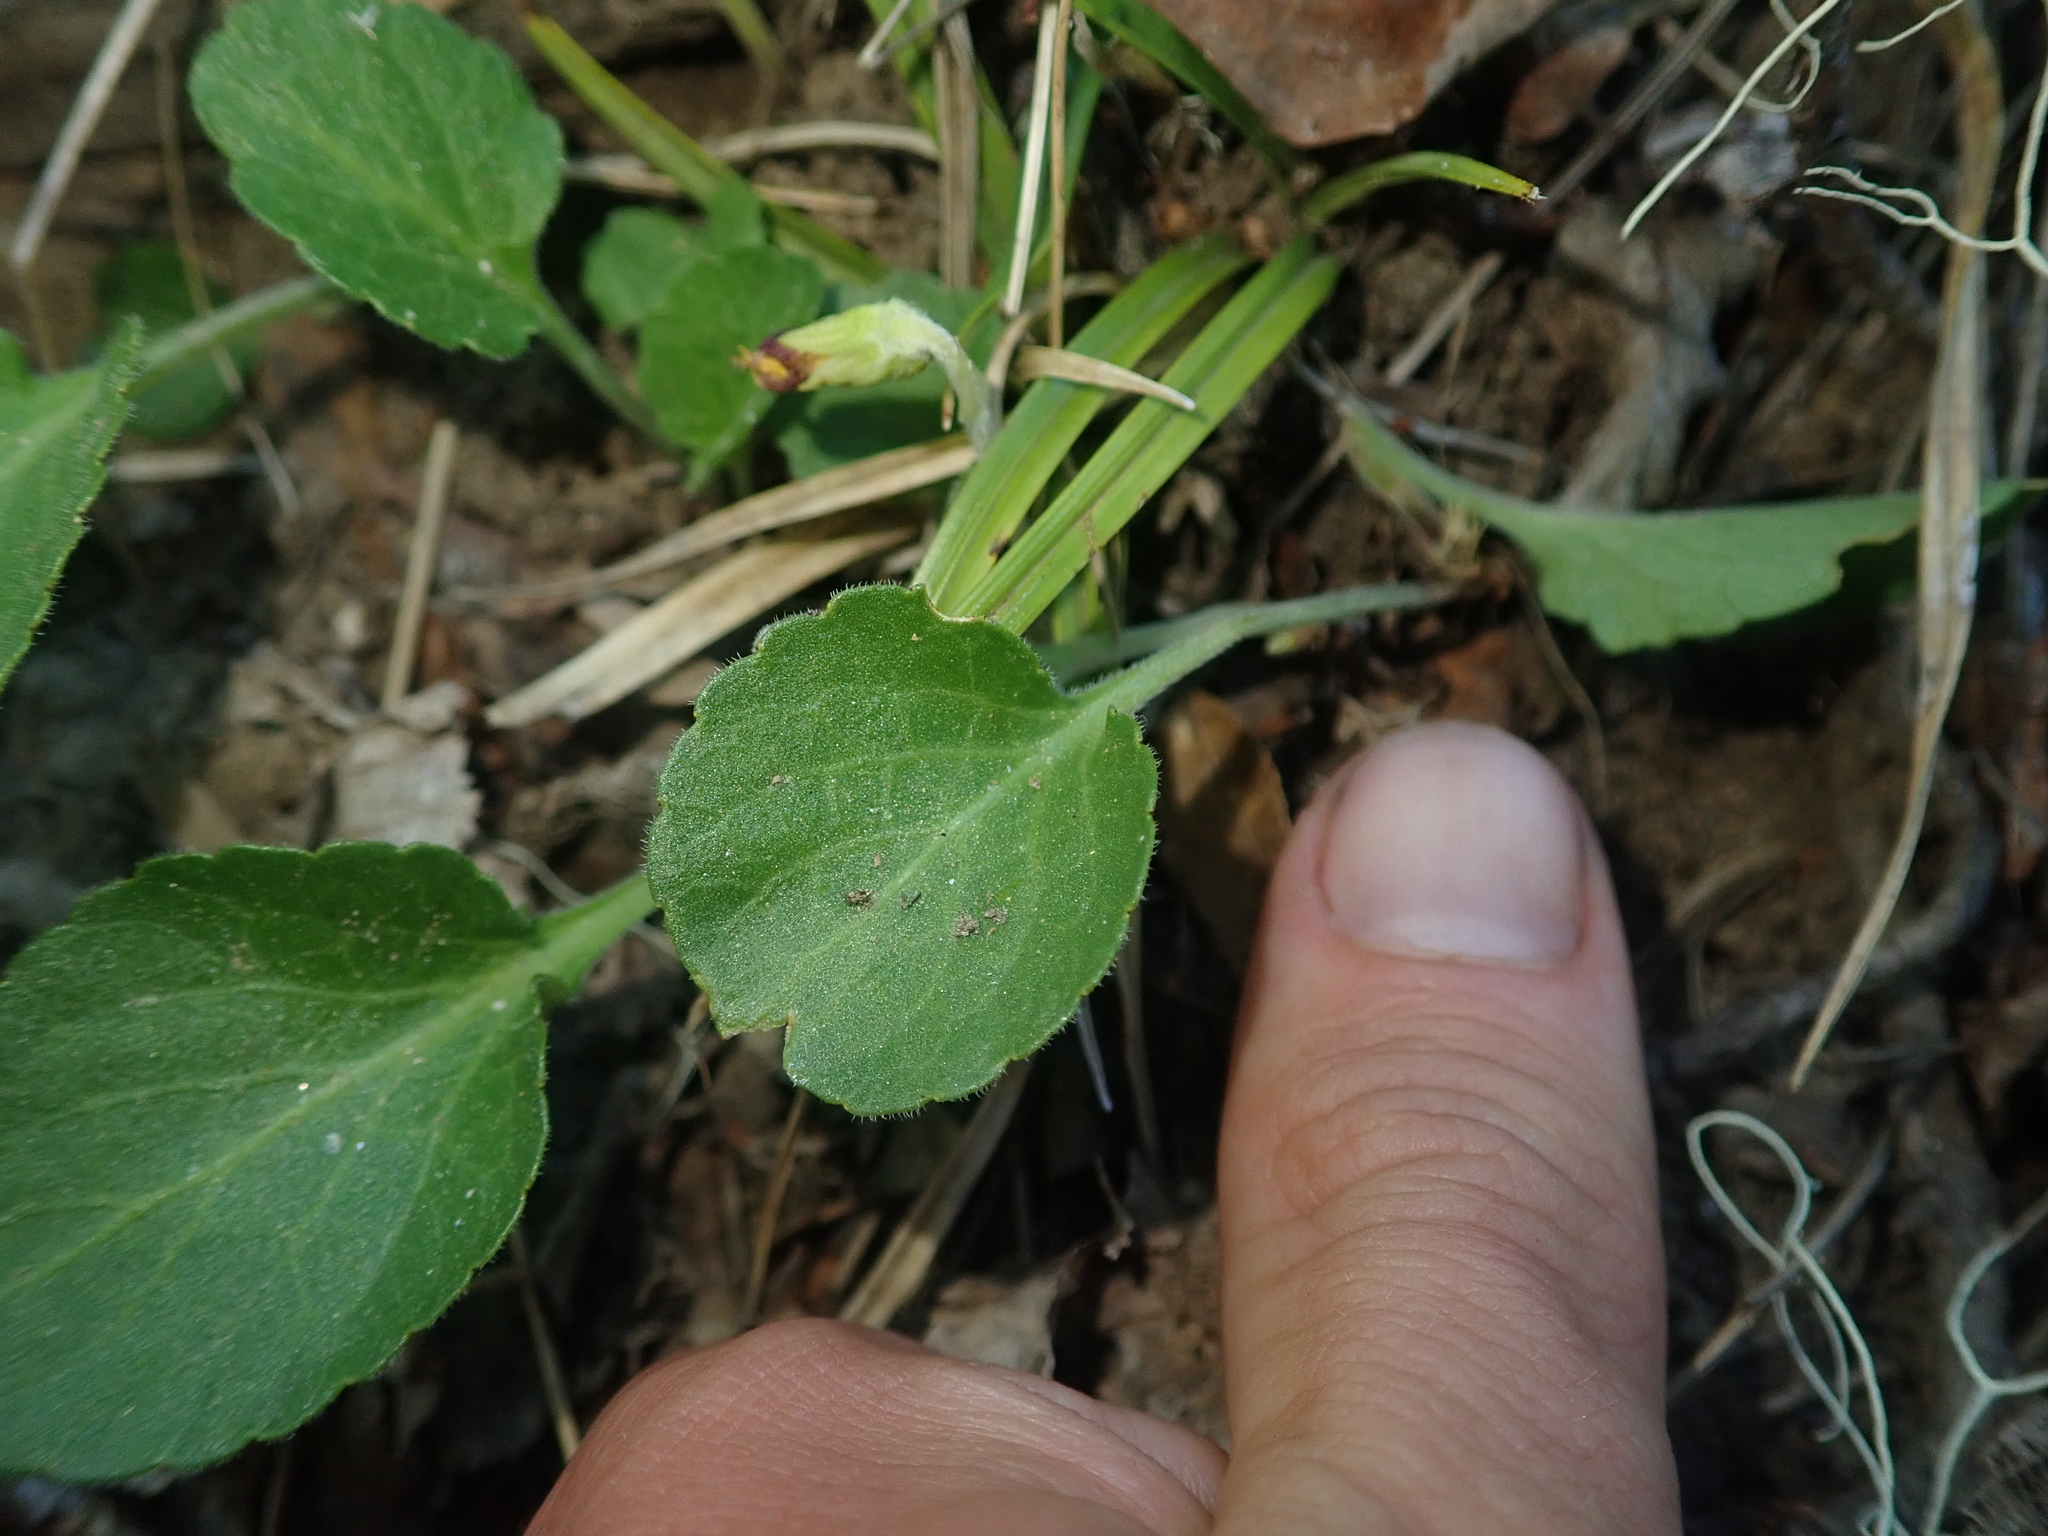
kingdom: Plantae
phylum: Tracheophyta
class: Magnoliopsida
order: Malpighiales
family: Violaceae
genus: Viola
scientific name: Viola reichei
